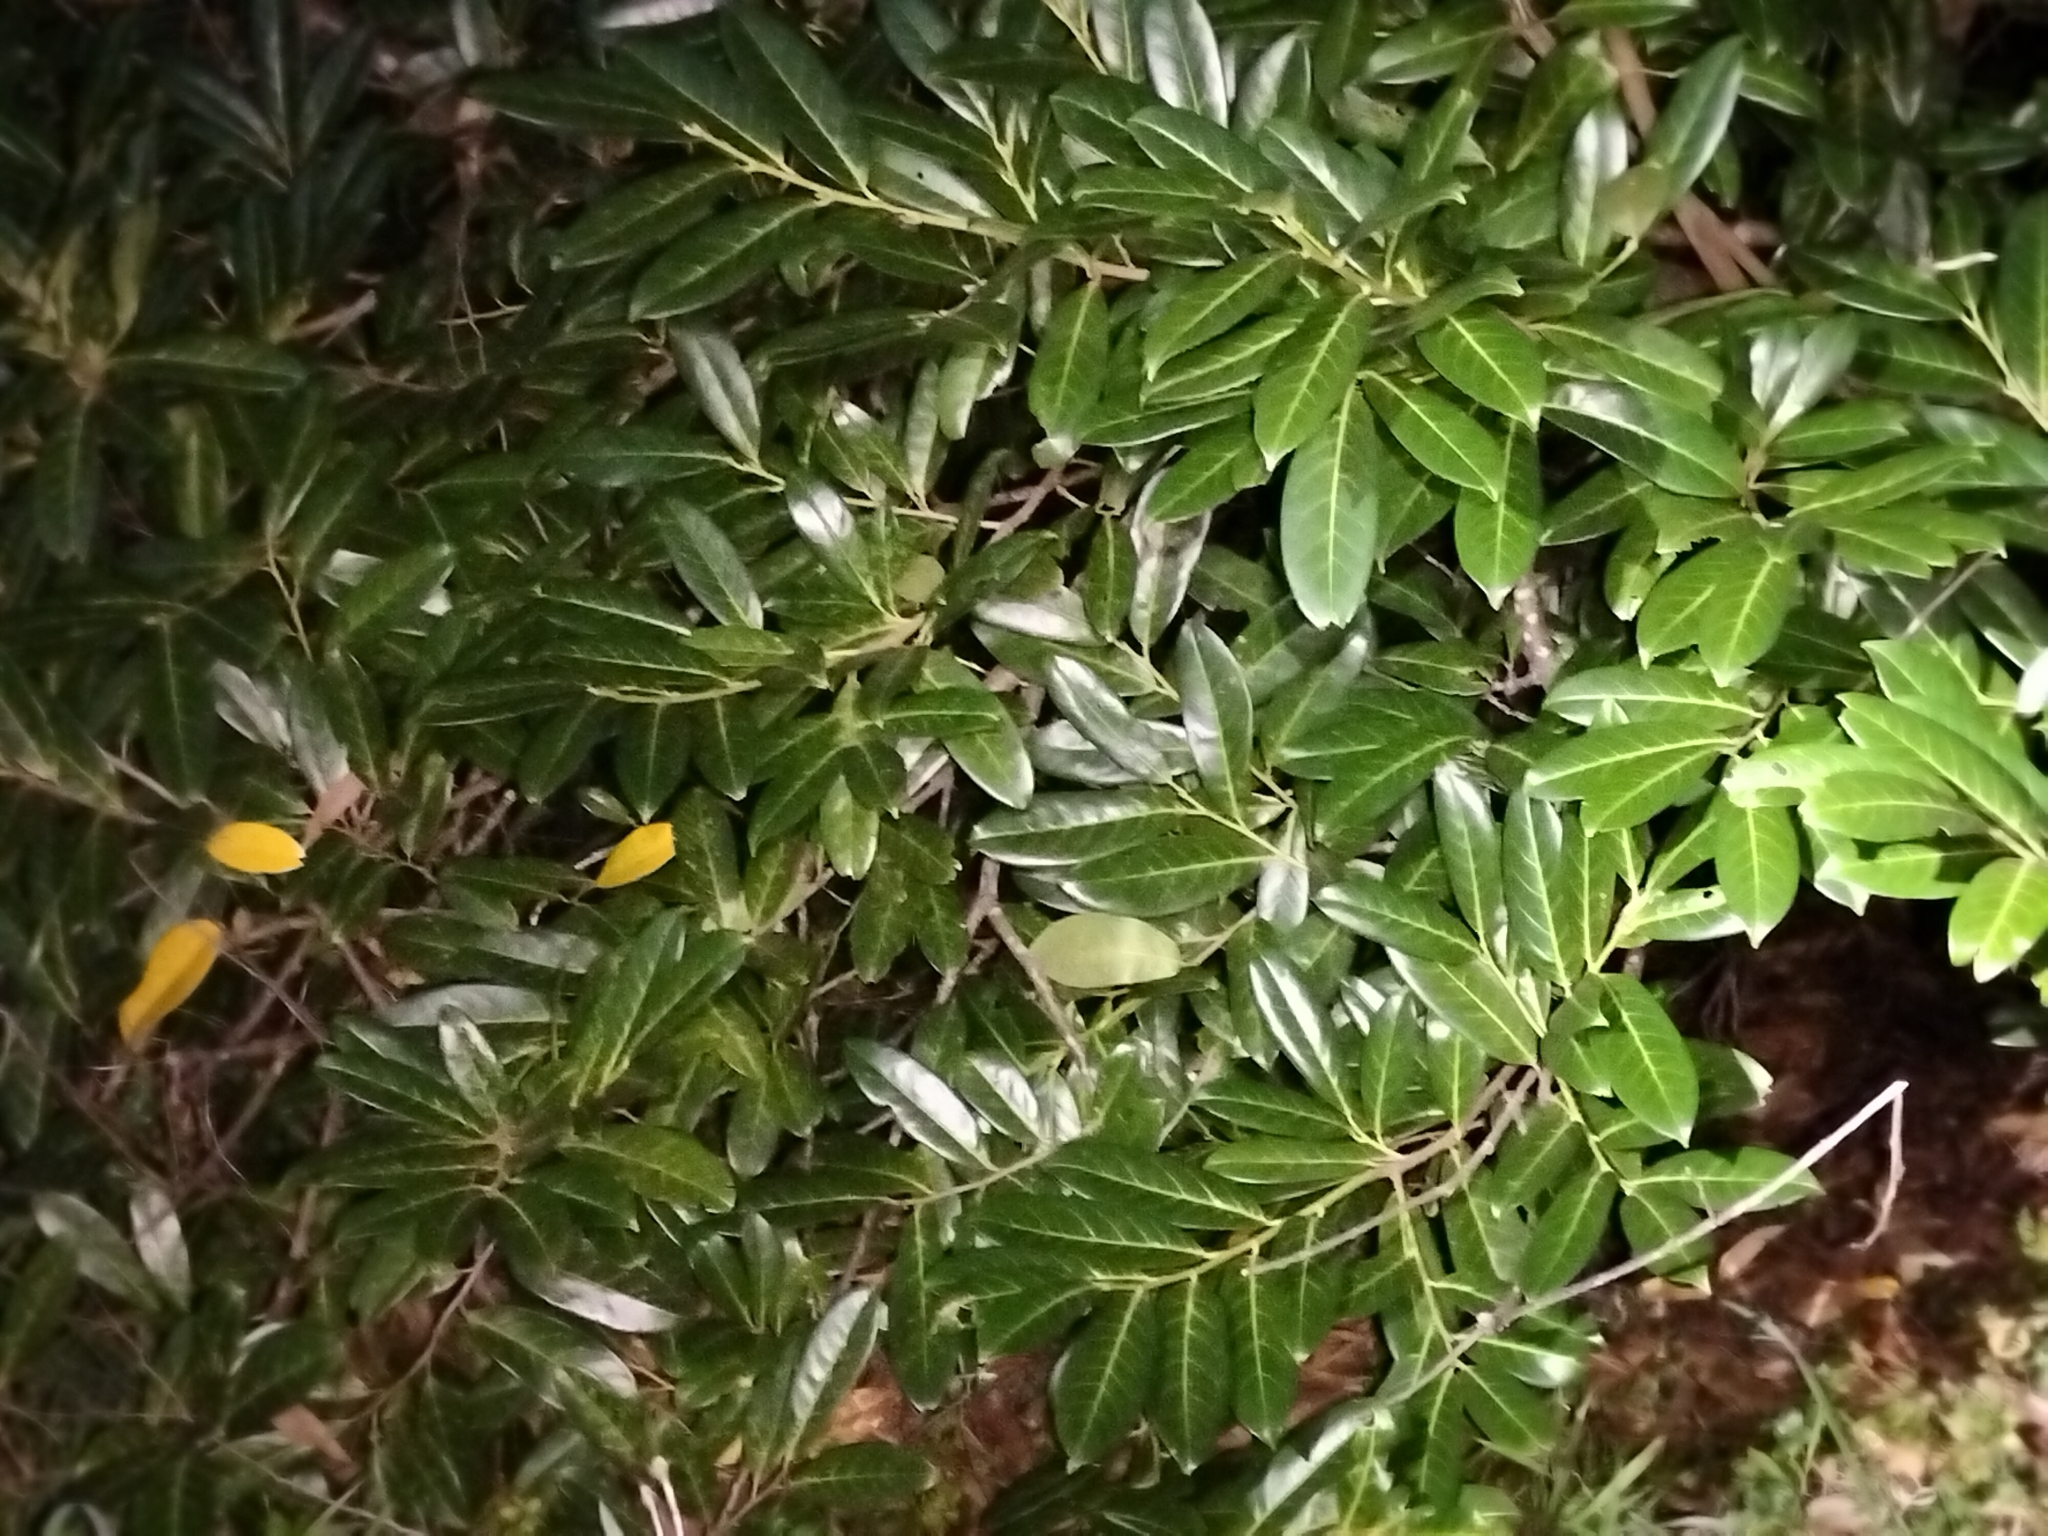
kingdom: Plantae
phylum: Tracheophyta
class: Magnoliopsida
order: Rosales
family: Rosaceae
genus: Prunus
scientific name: Prunus laurocerasus
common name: Cherry laurel
